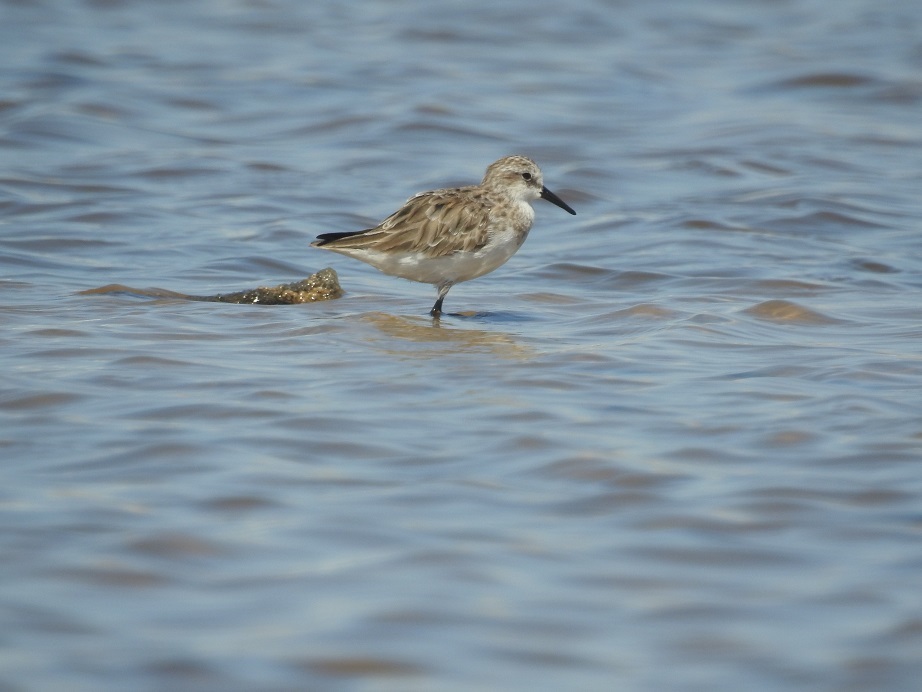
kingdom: Animalia
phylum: Chordata
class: Aves
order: Charadriiformes
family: Scolopacidae
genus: Calidris
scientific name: Calidris minuta
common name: Little stint
